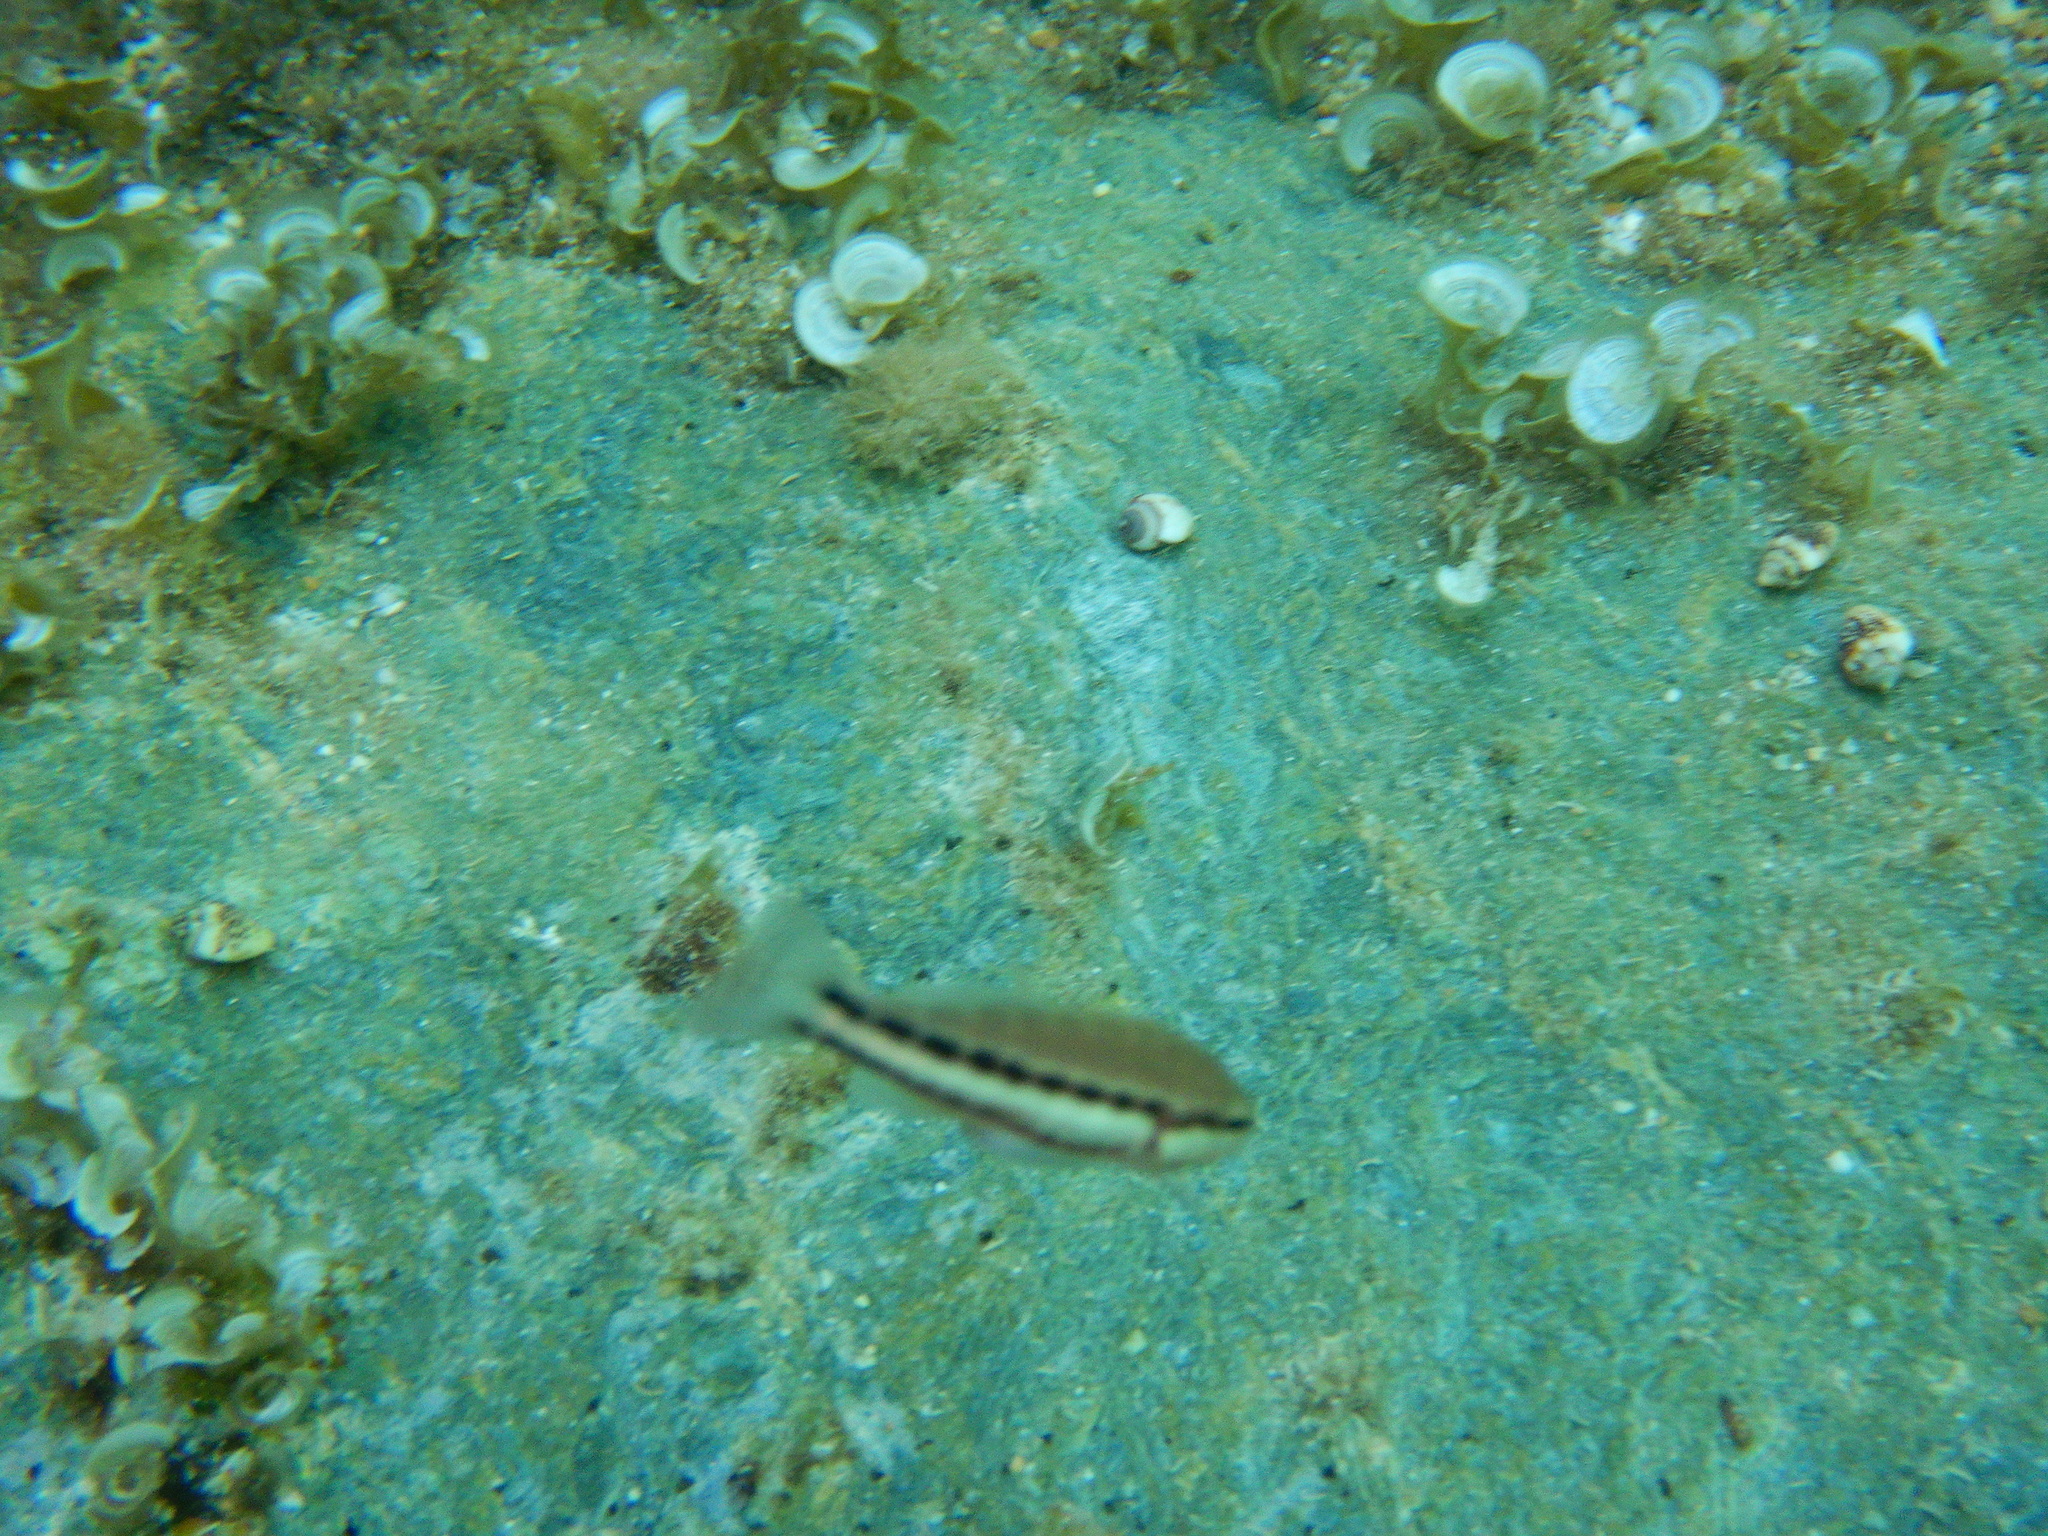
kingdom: Animalia
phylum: Chordata
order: Perciformes
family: Serranidae
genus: Serranus
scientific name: Serranus cabrilla
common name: Comber
